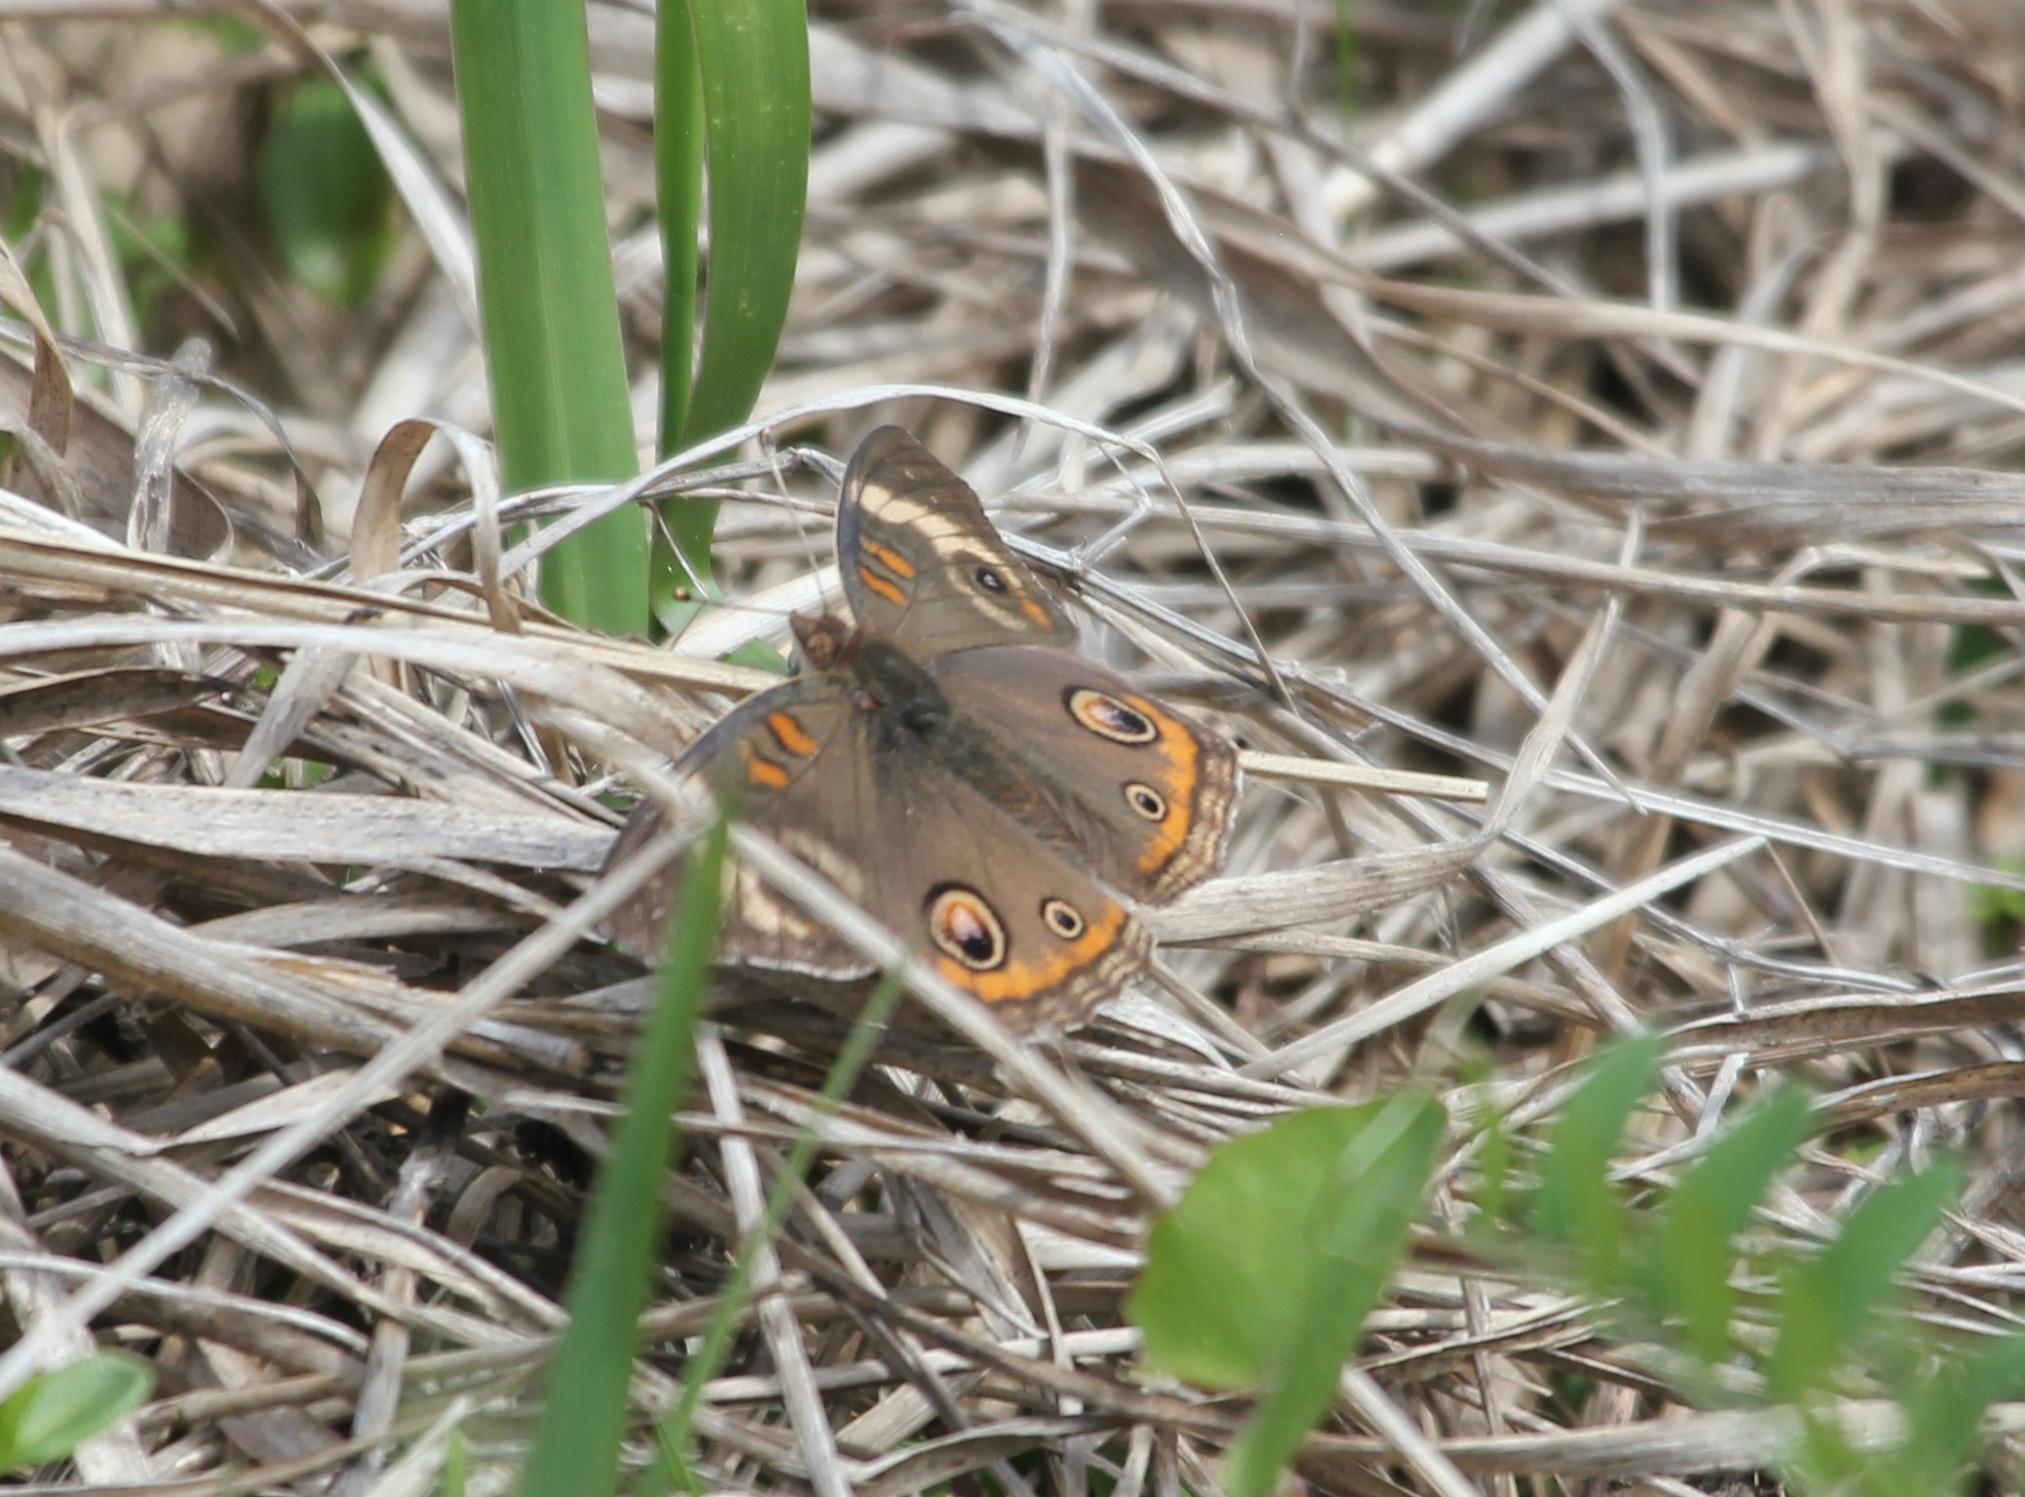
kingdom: Animalia
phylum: Arthropoda
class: Insecta
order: Lepidoptera
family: Nymphalidae
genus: Junonia
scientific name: Junonia coenia
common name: Common buckeye
